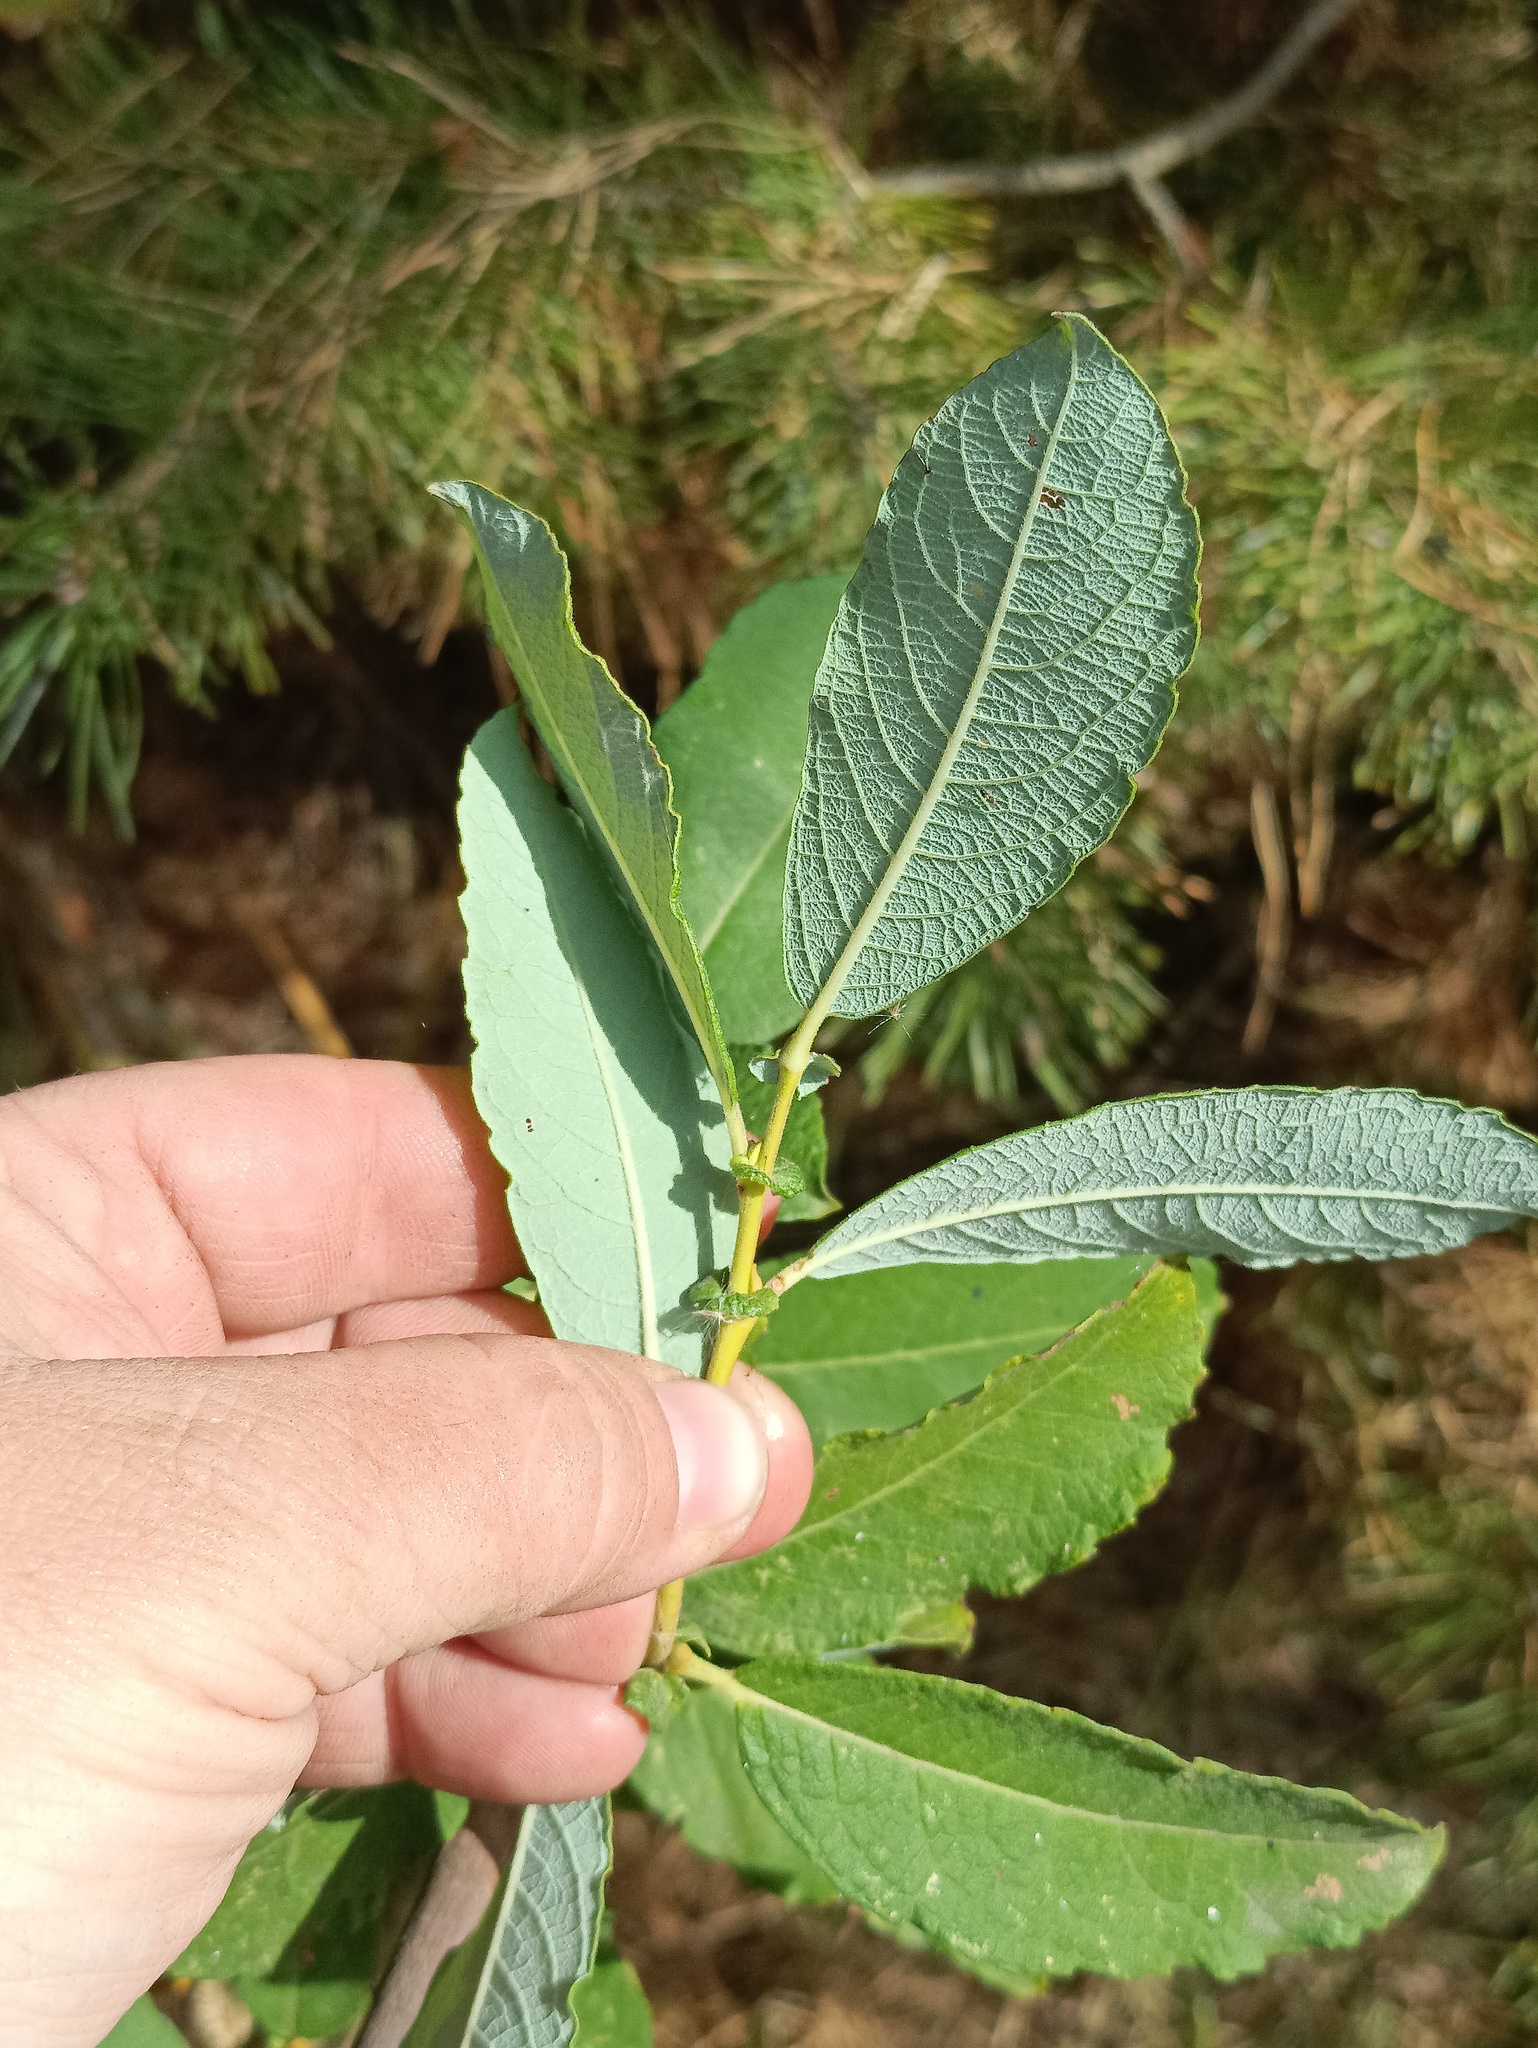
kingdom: Plantae
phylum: Tracheophyta
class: Magnoliopsida
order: Malpighiales
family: Salicaceae
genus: Salix
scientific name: Salix cinerea
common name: Common sallow
